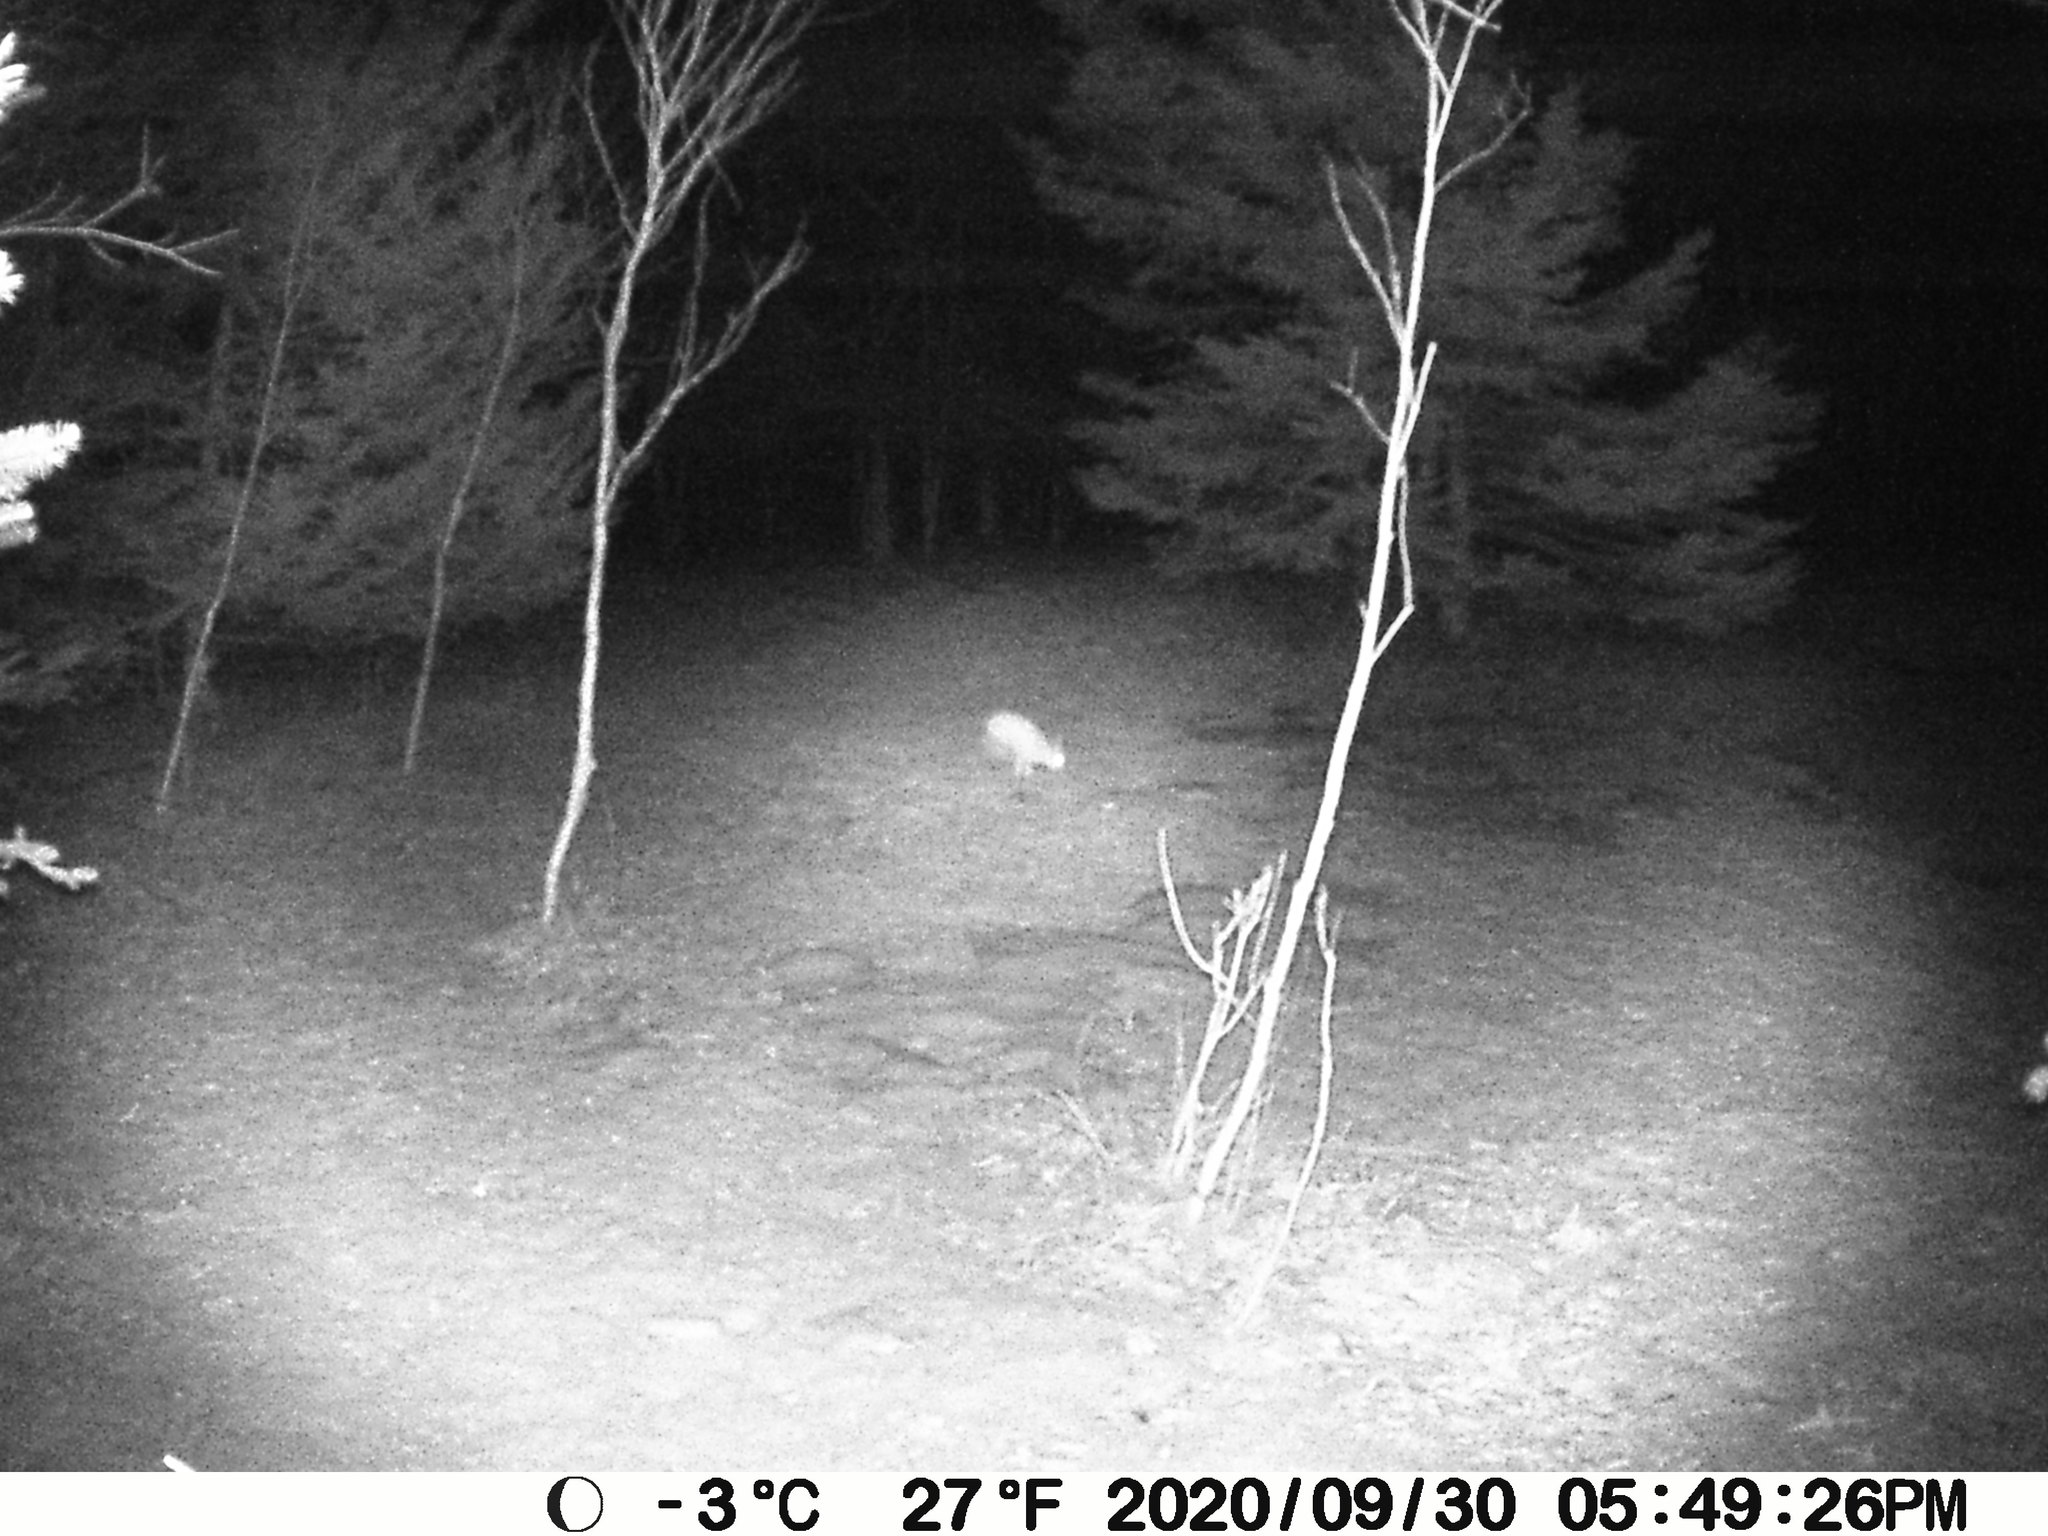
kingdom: Animalia
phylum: Chordata
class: Mammalia
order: Lagomorpha
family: Leporidae
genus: Lepus
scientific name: Lepus americanus
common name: Snowshoe hare
